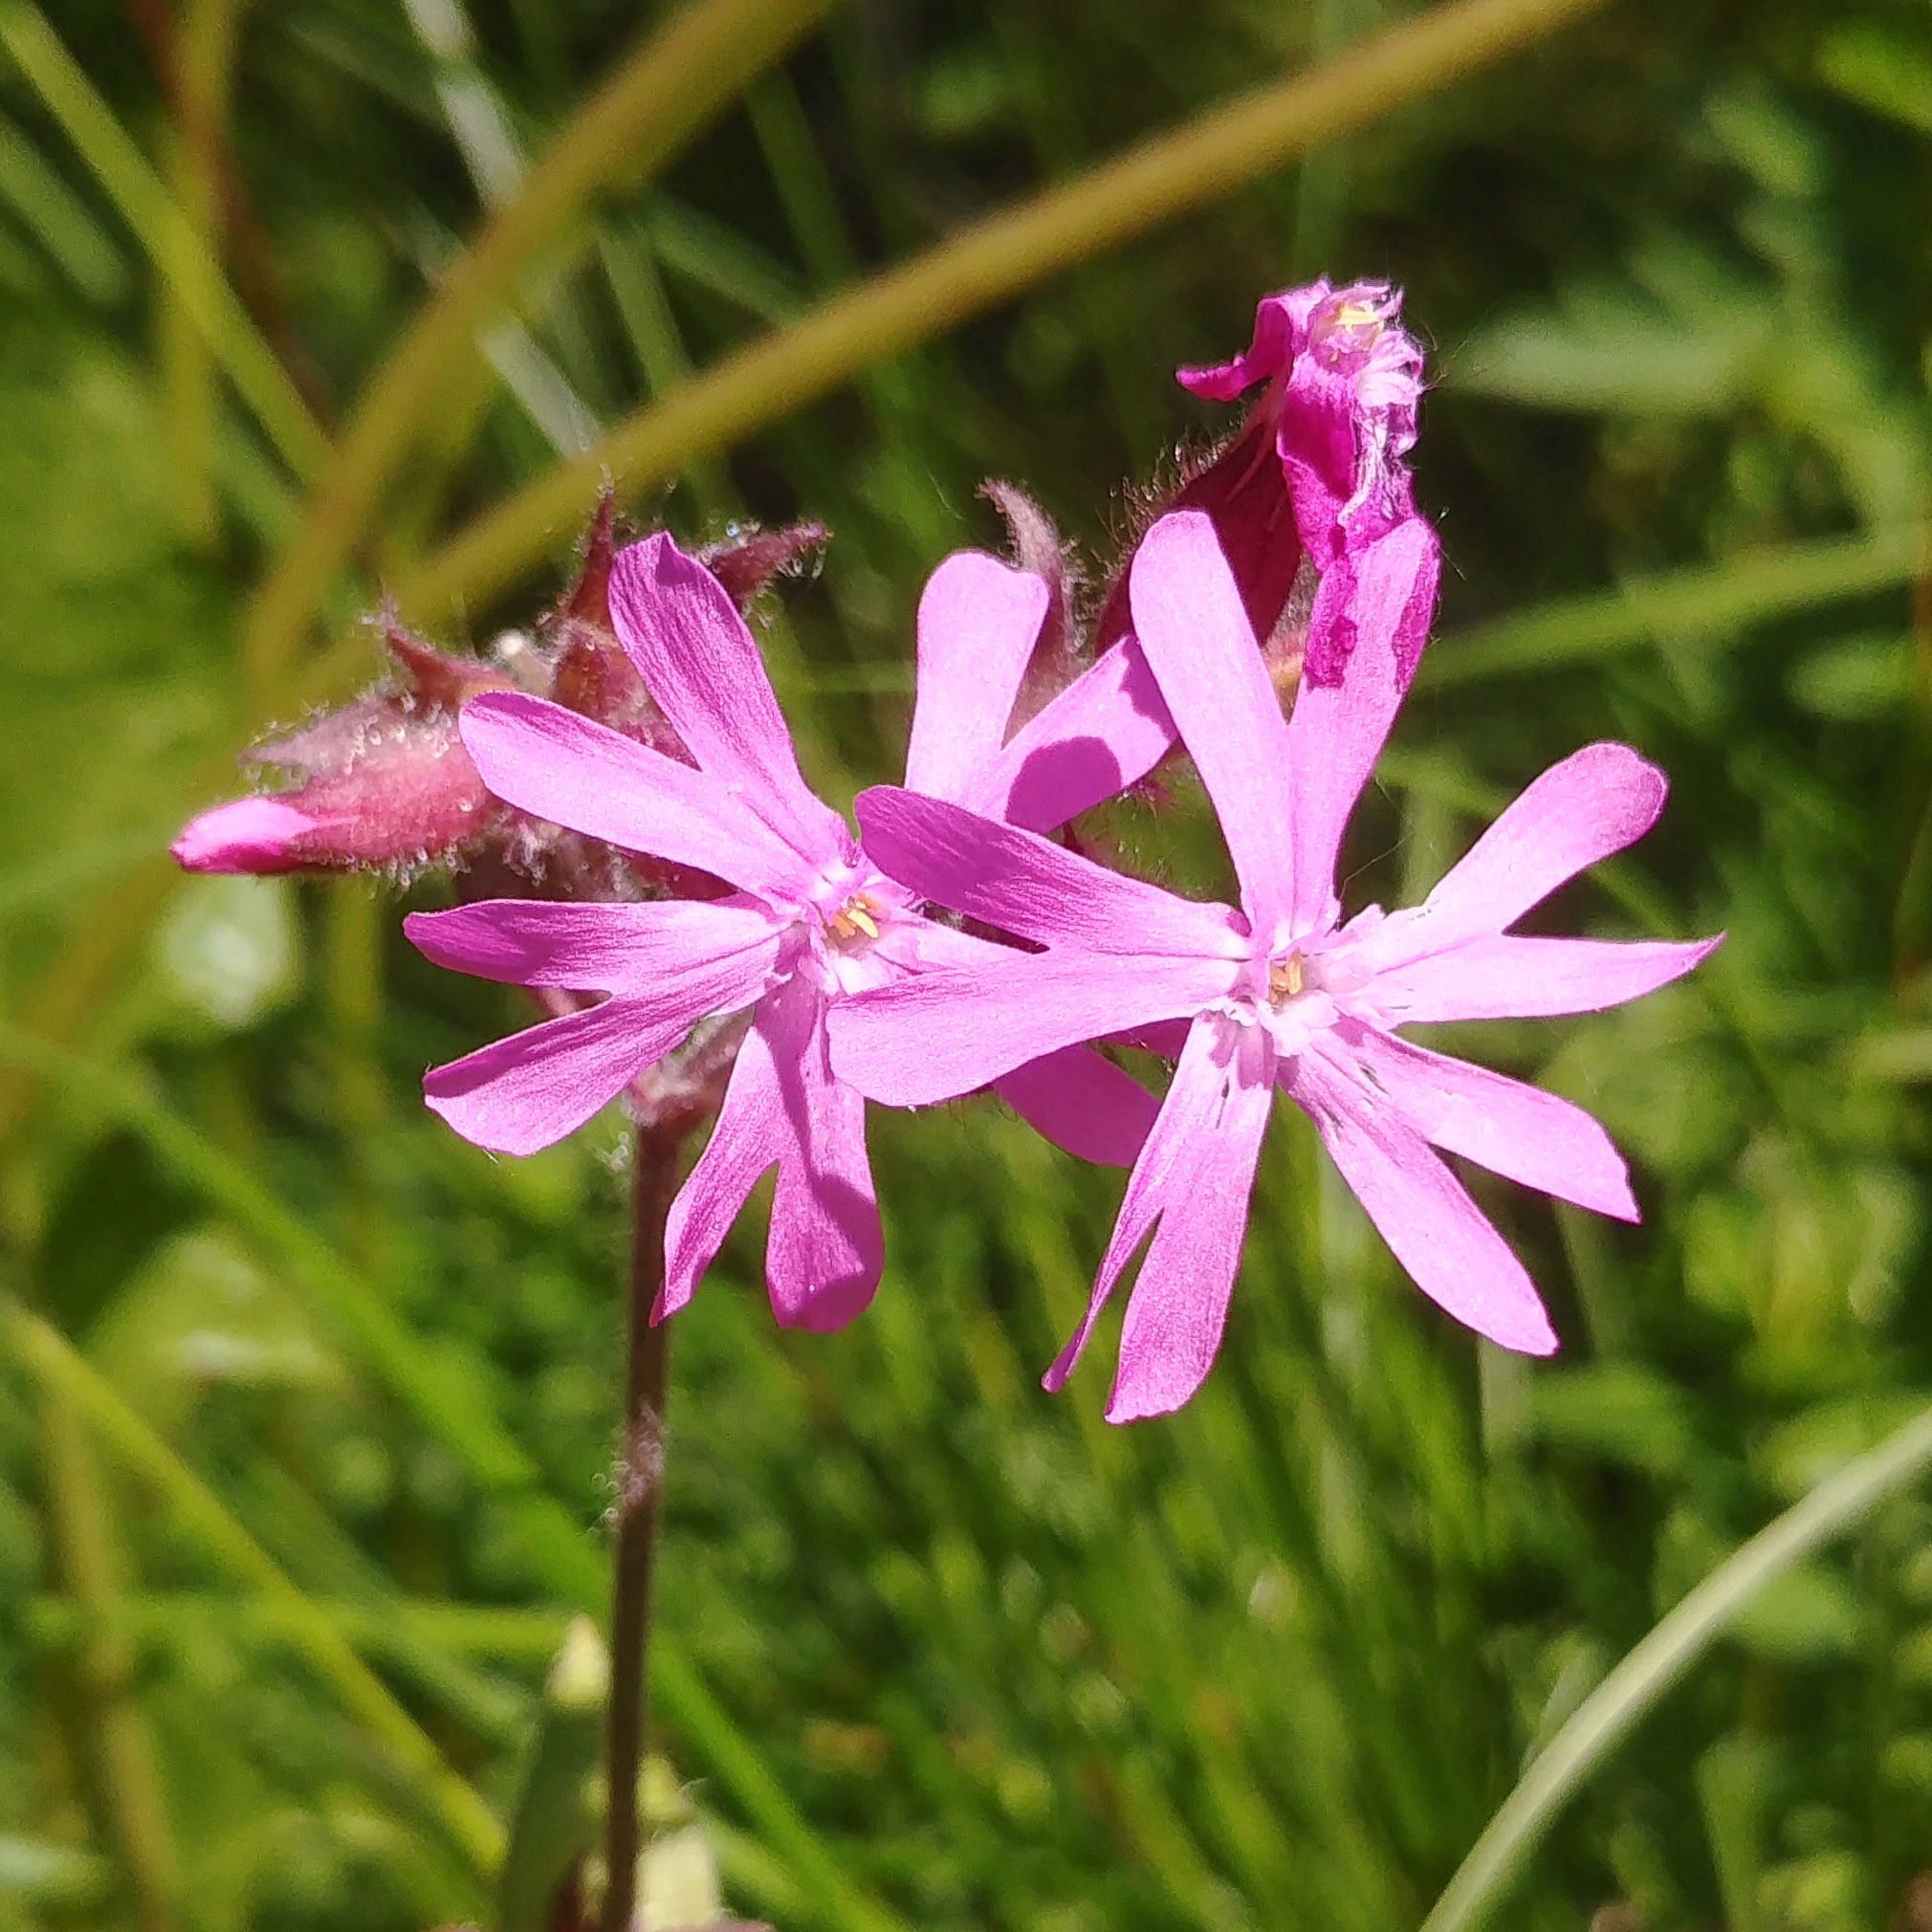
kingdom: Plantae
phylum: Tracheophyta
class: Magnoliopsida
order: Caryophyllales
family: Caryophyllaceae
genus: Silene
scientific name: Silene dioica
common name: Red campion
